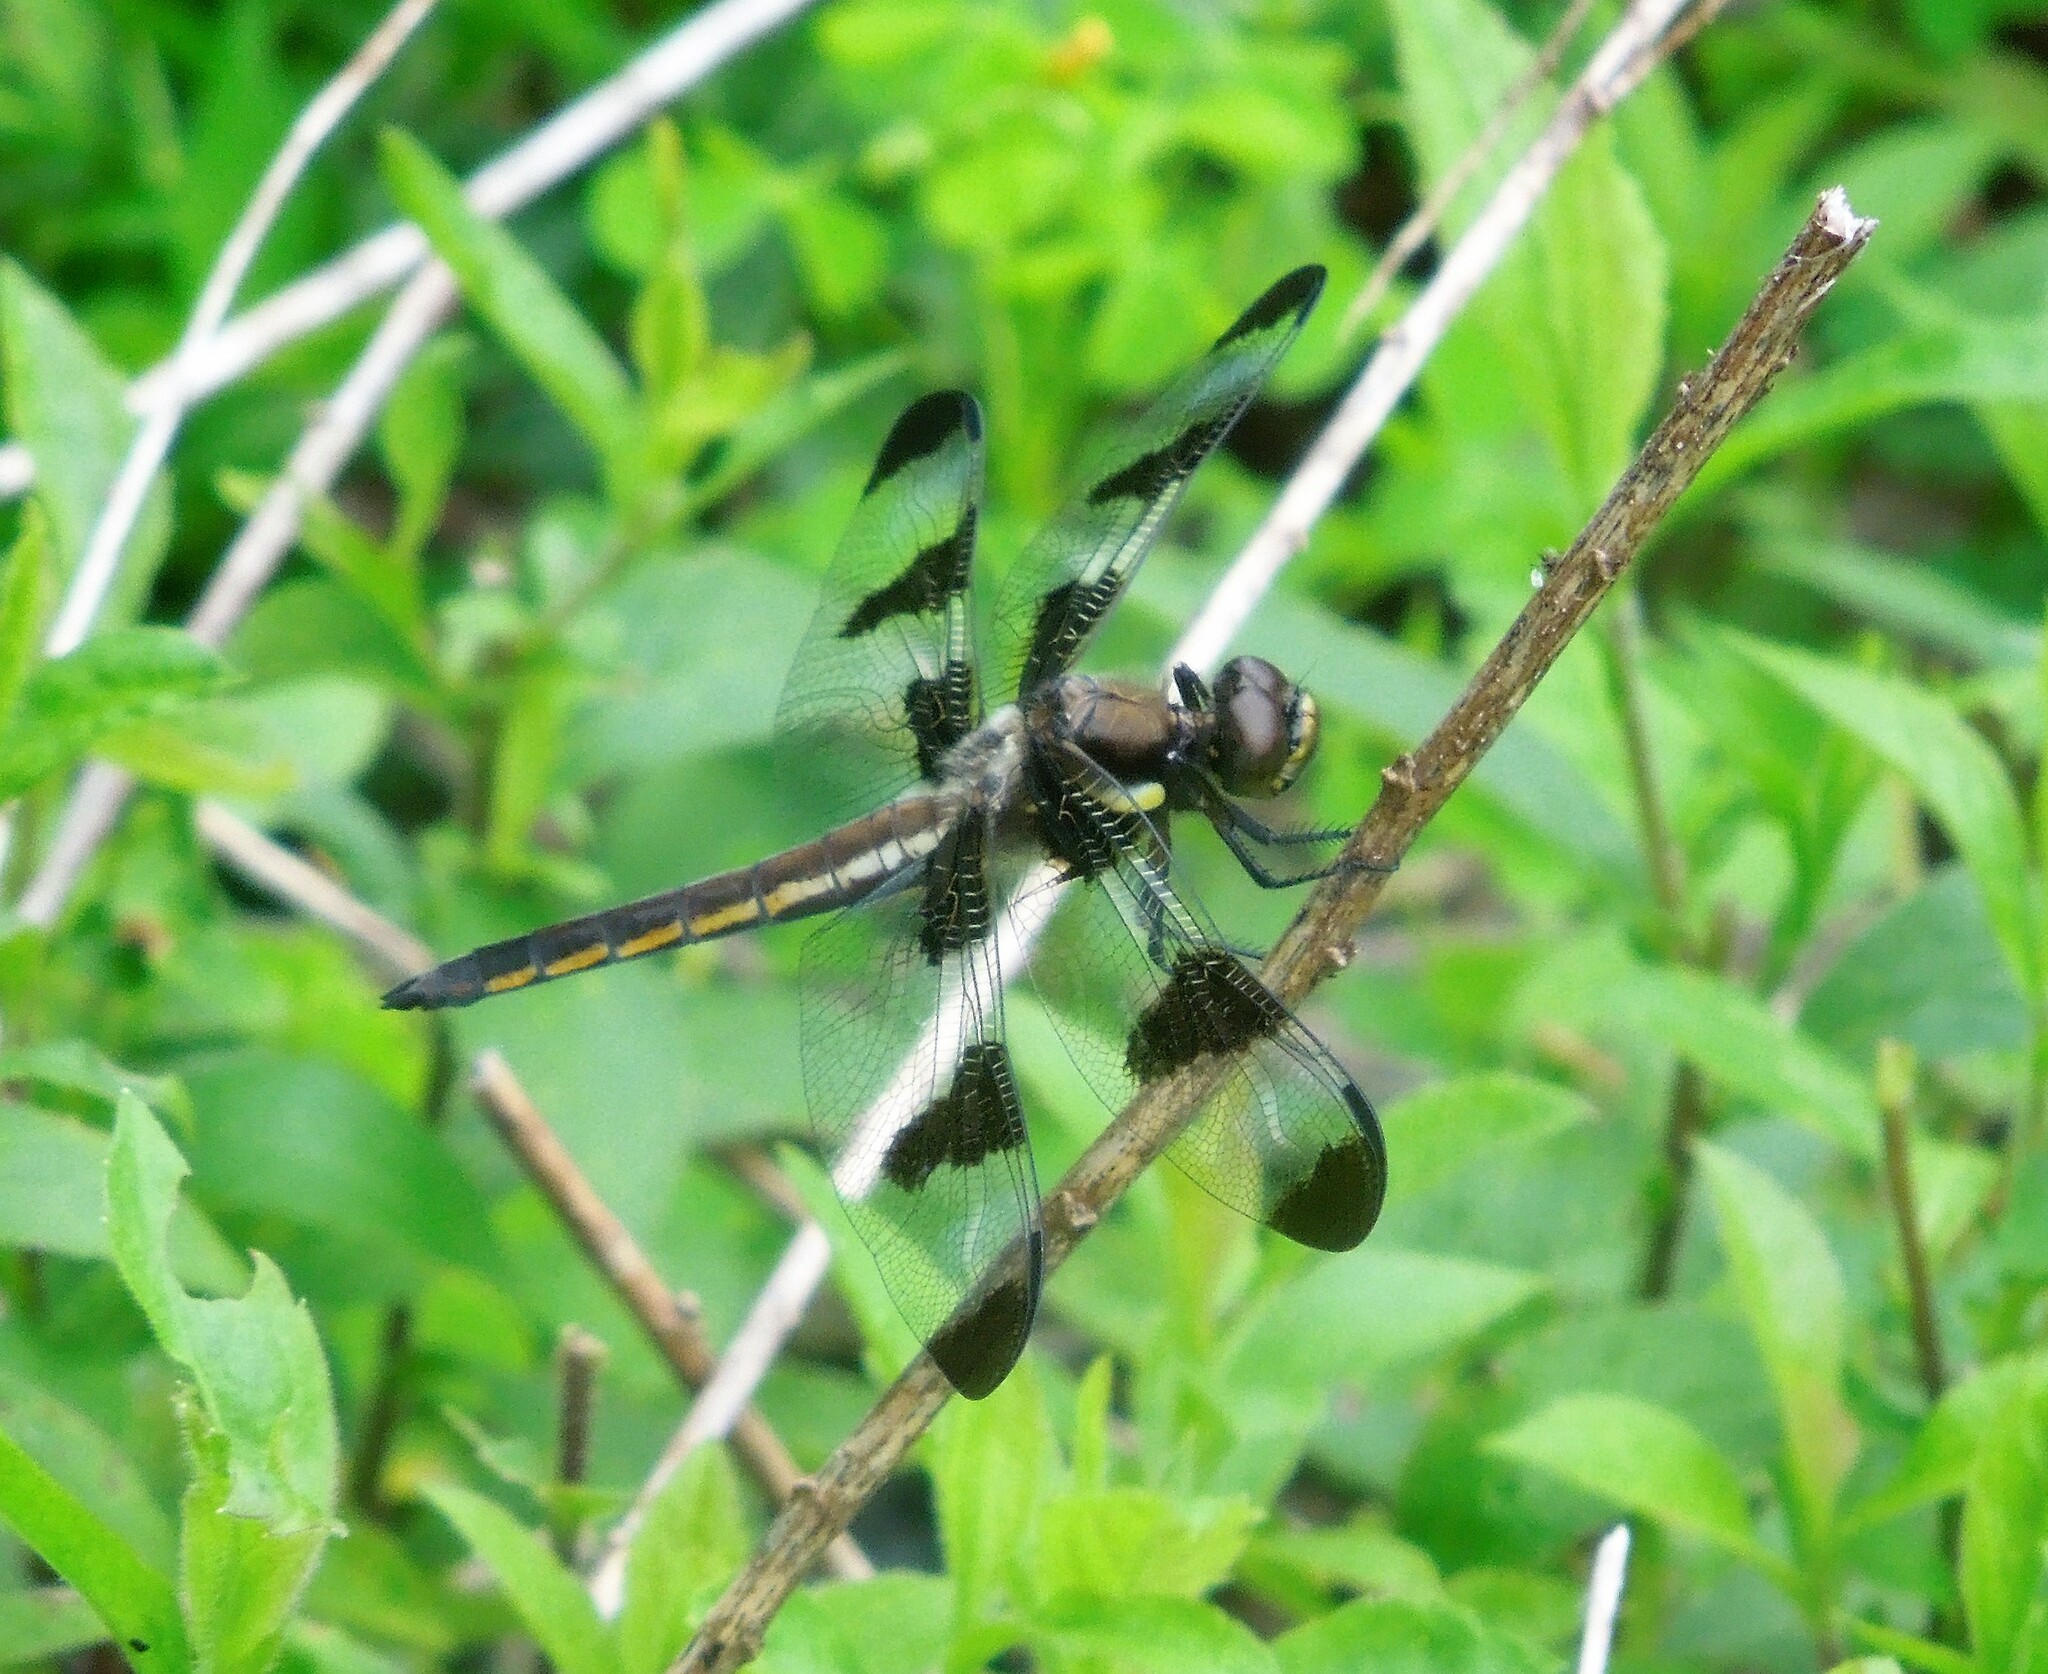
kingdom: Animalia
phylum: Arthropoda
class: Insecta
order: Odonata
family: Libellulidae
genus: Libellula
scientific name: Libellula pulchella
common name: Twelve-spotted skimmer
